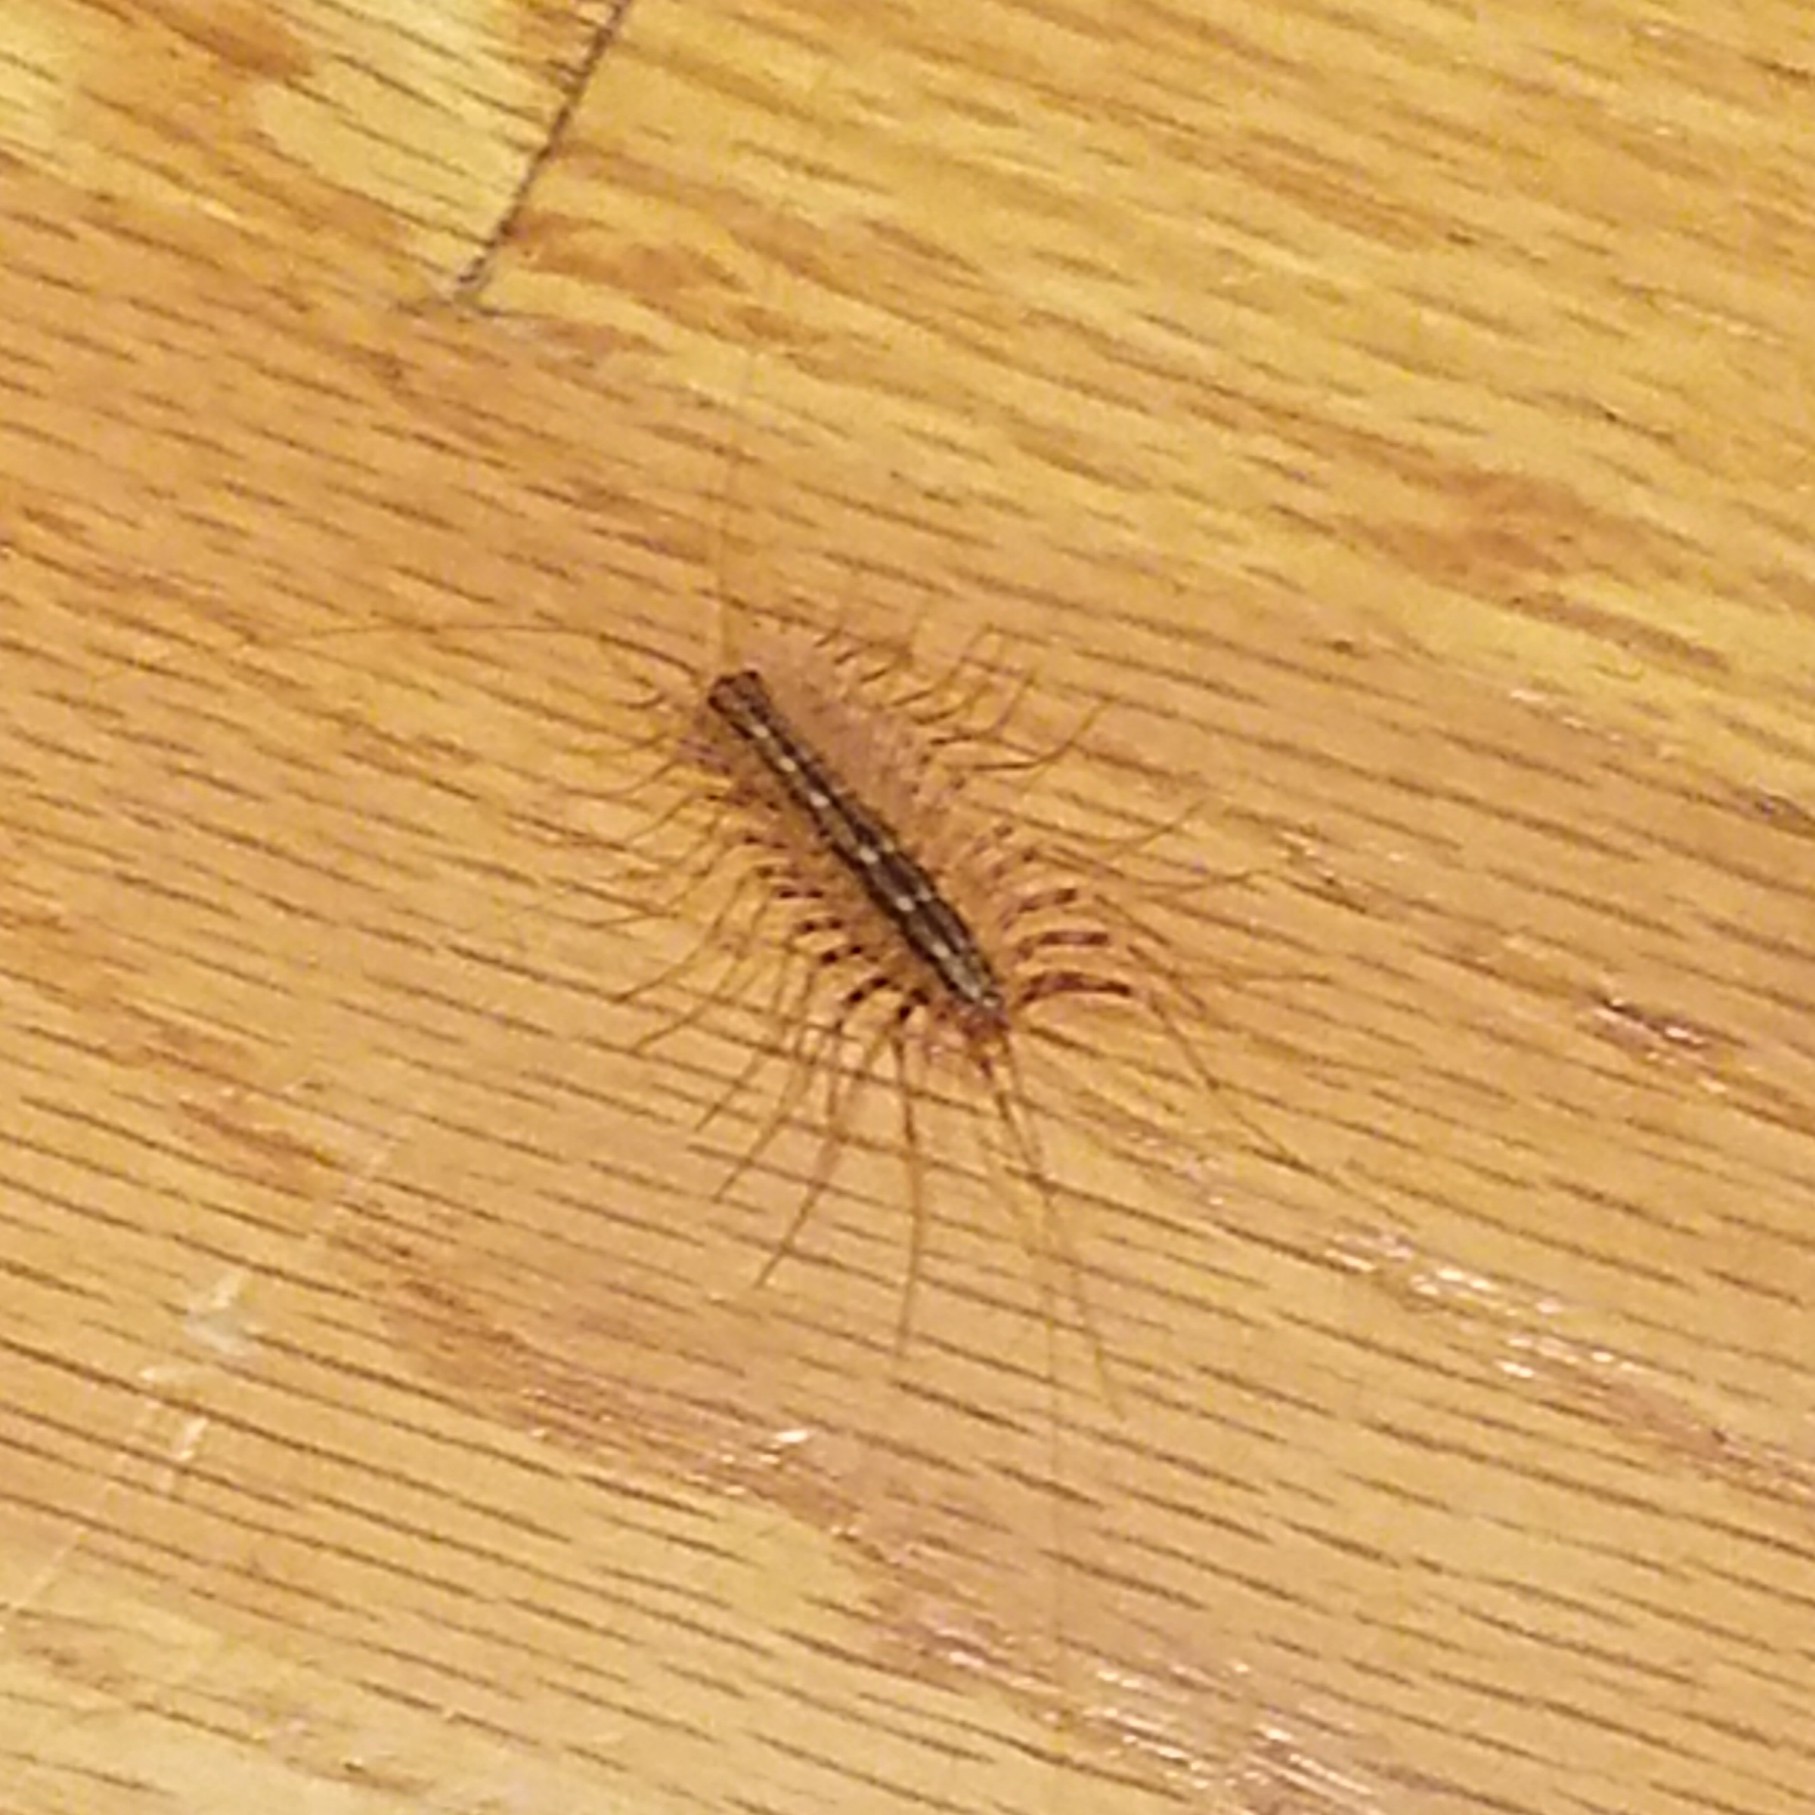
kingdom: Animalia
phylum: Arthropoda
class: Chilopoda
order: Scutigeromorpha
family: Scutigeridae
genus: Scutigera
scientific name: Scutigera coleoptrata
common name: House centipede
